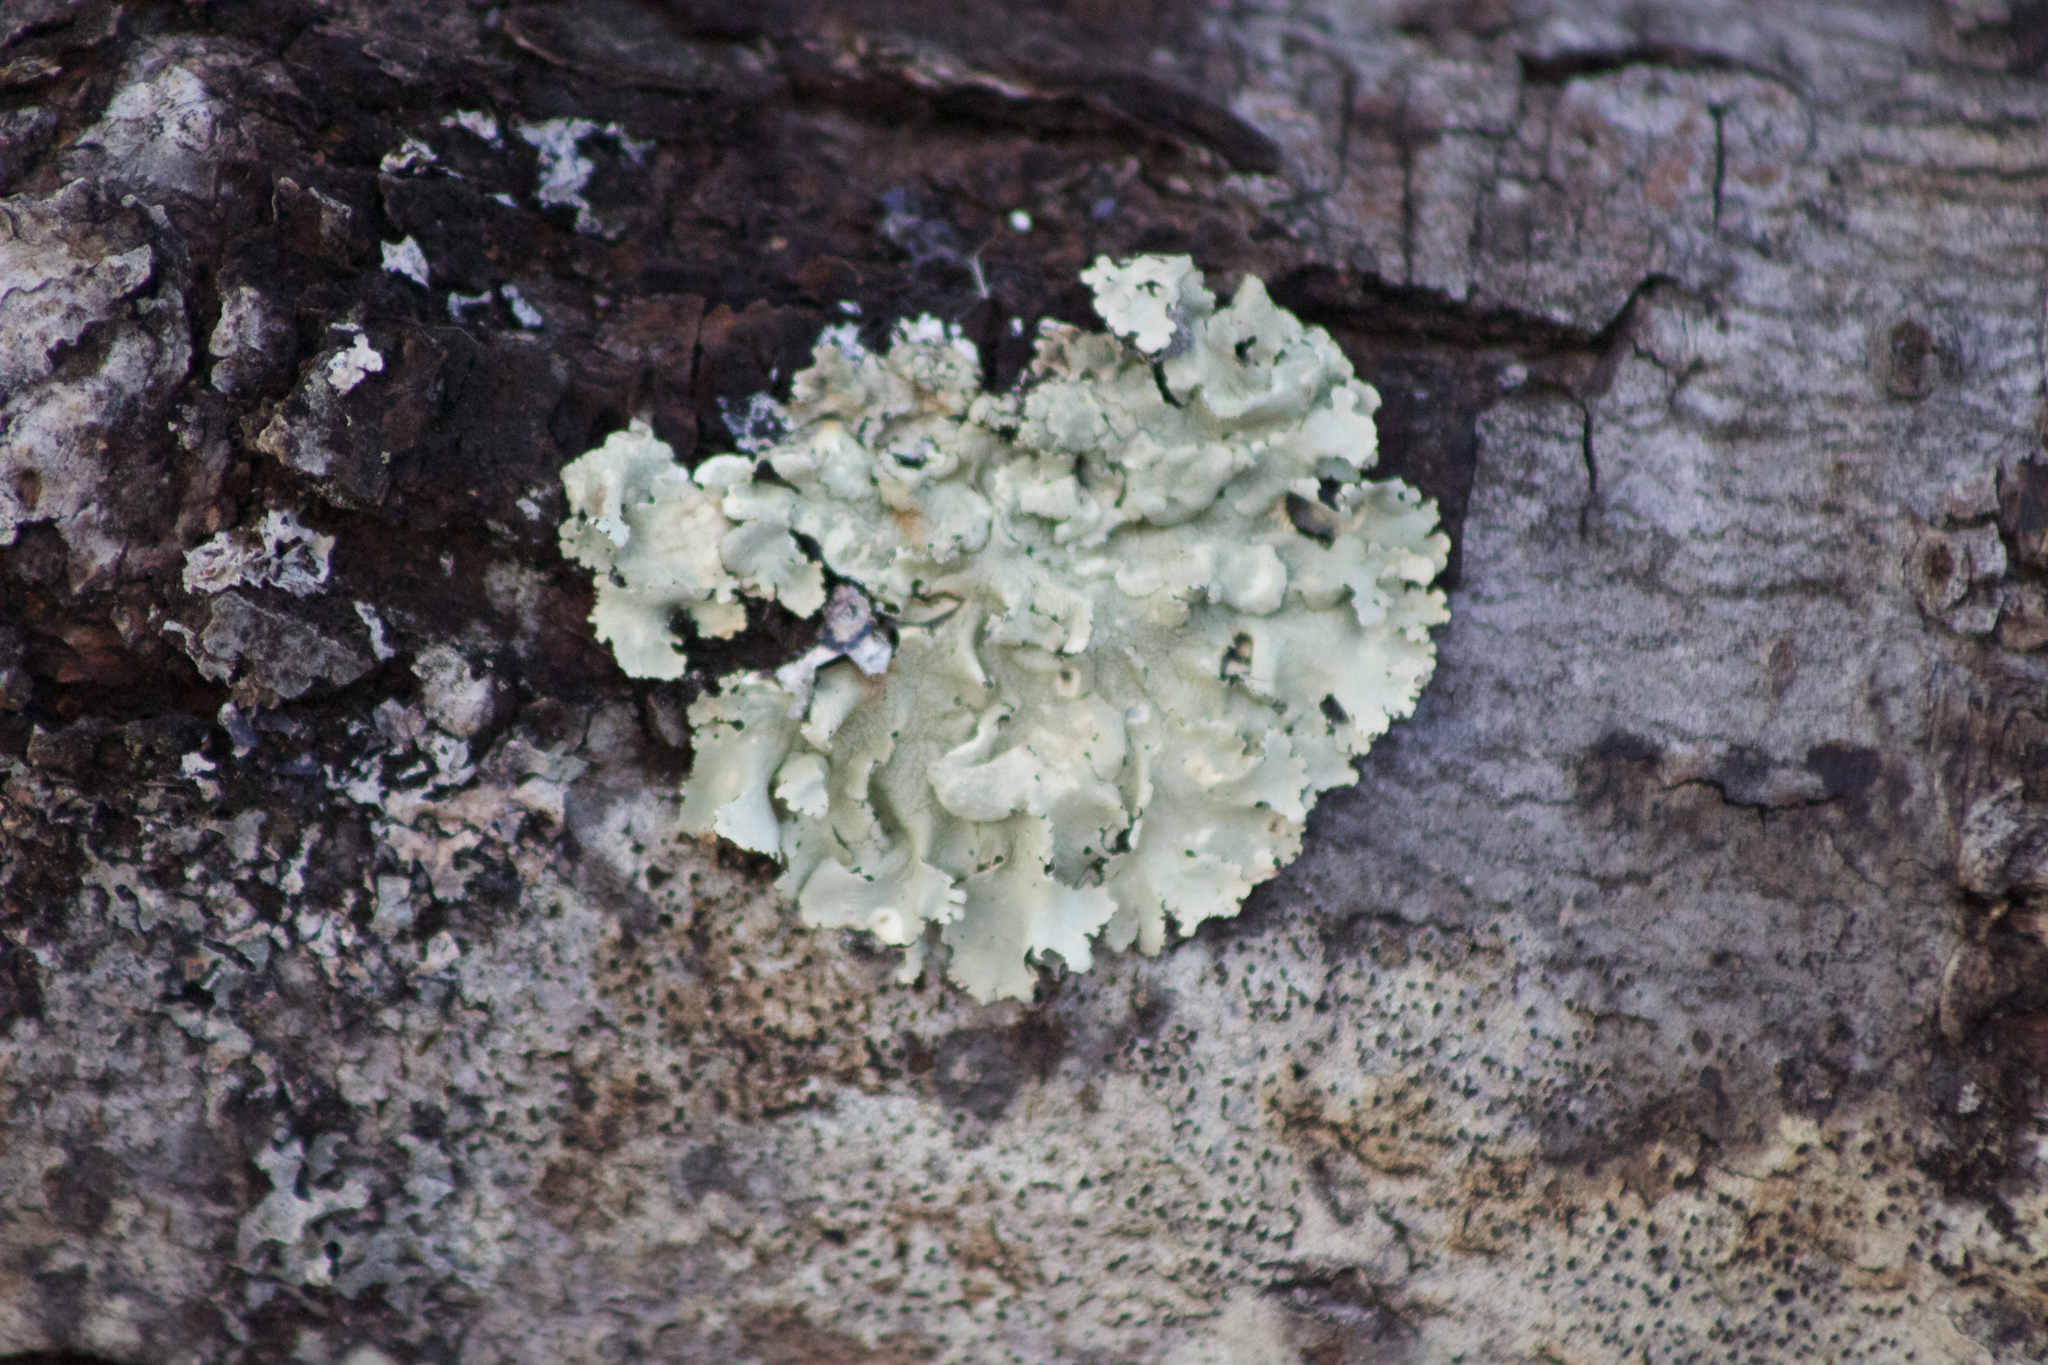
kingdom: Fungi
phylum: Ascomycota
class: Lecanoromycetes
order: Lecanorales
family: Parmeliaceae
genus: Flavoparmelia
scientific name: Flavoparmelia caperata
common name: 40-mile per hour lichen
